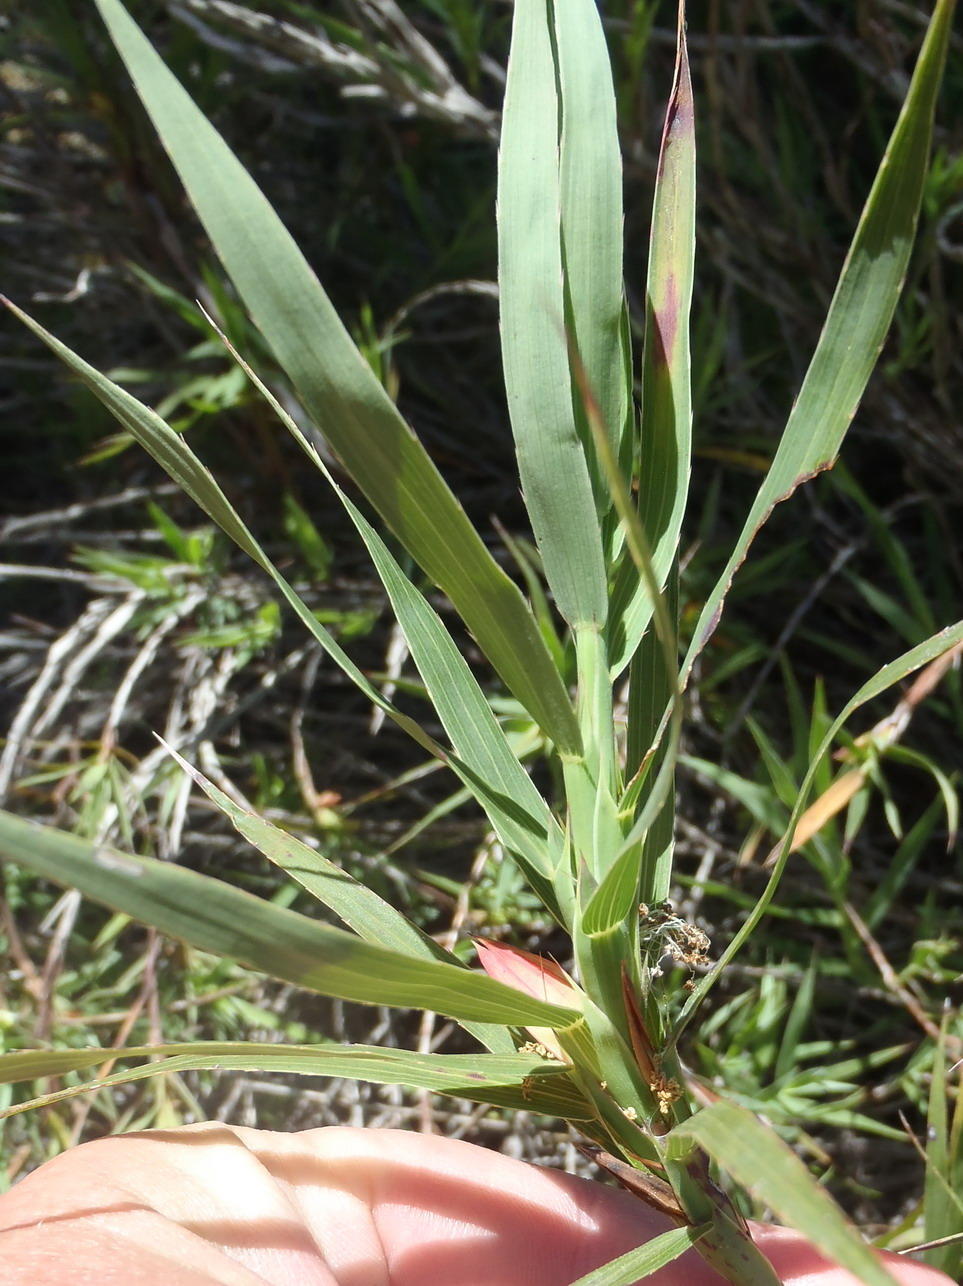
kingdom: Plantae
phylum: Tracheophyta
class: Magnoliopsida
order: Rosales
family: Rosaceae
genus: Cliffortia
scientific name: Cliffortia graminea
